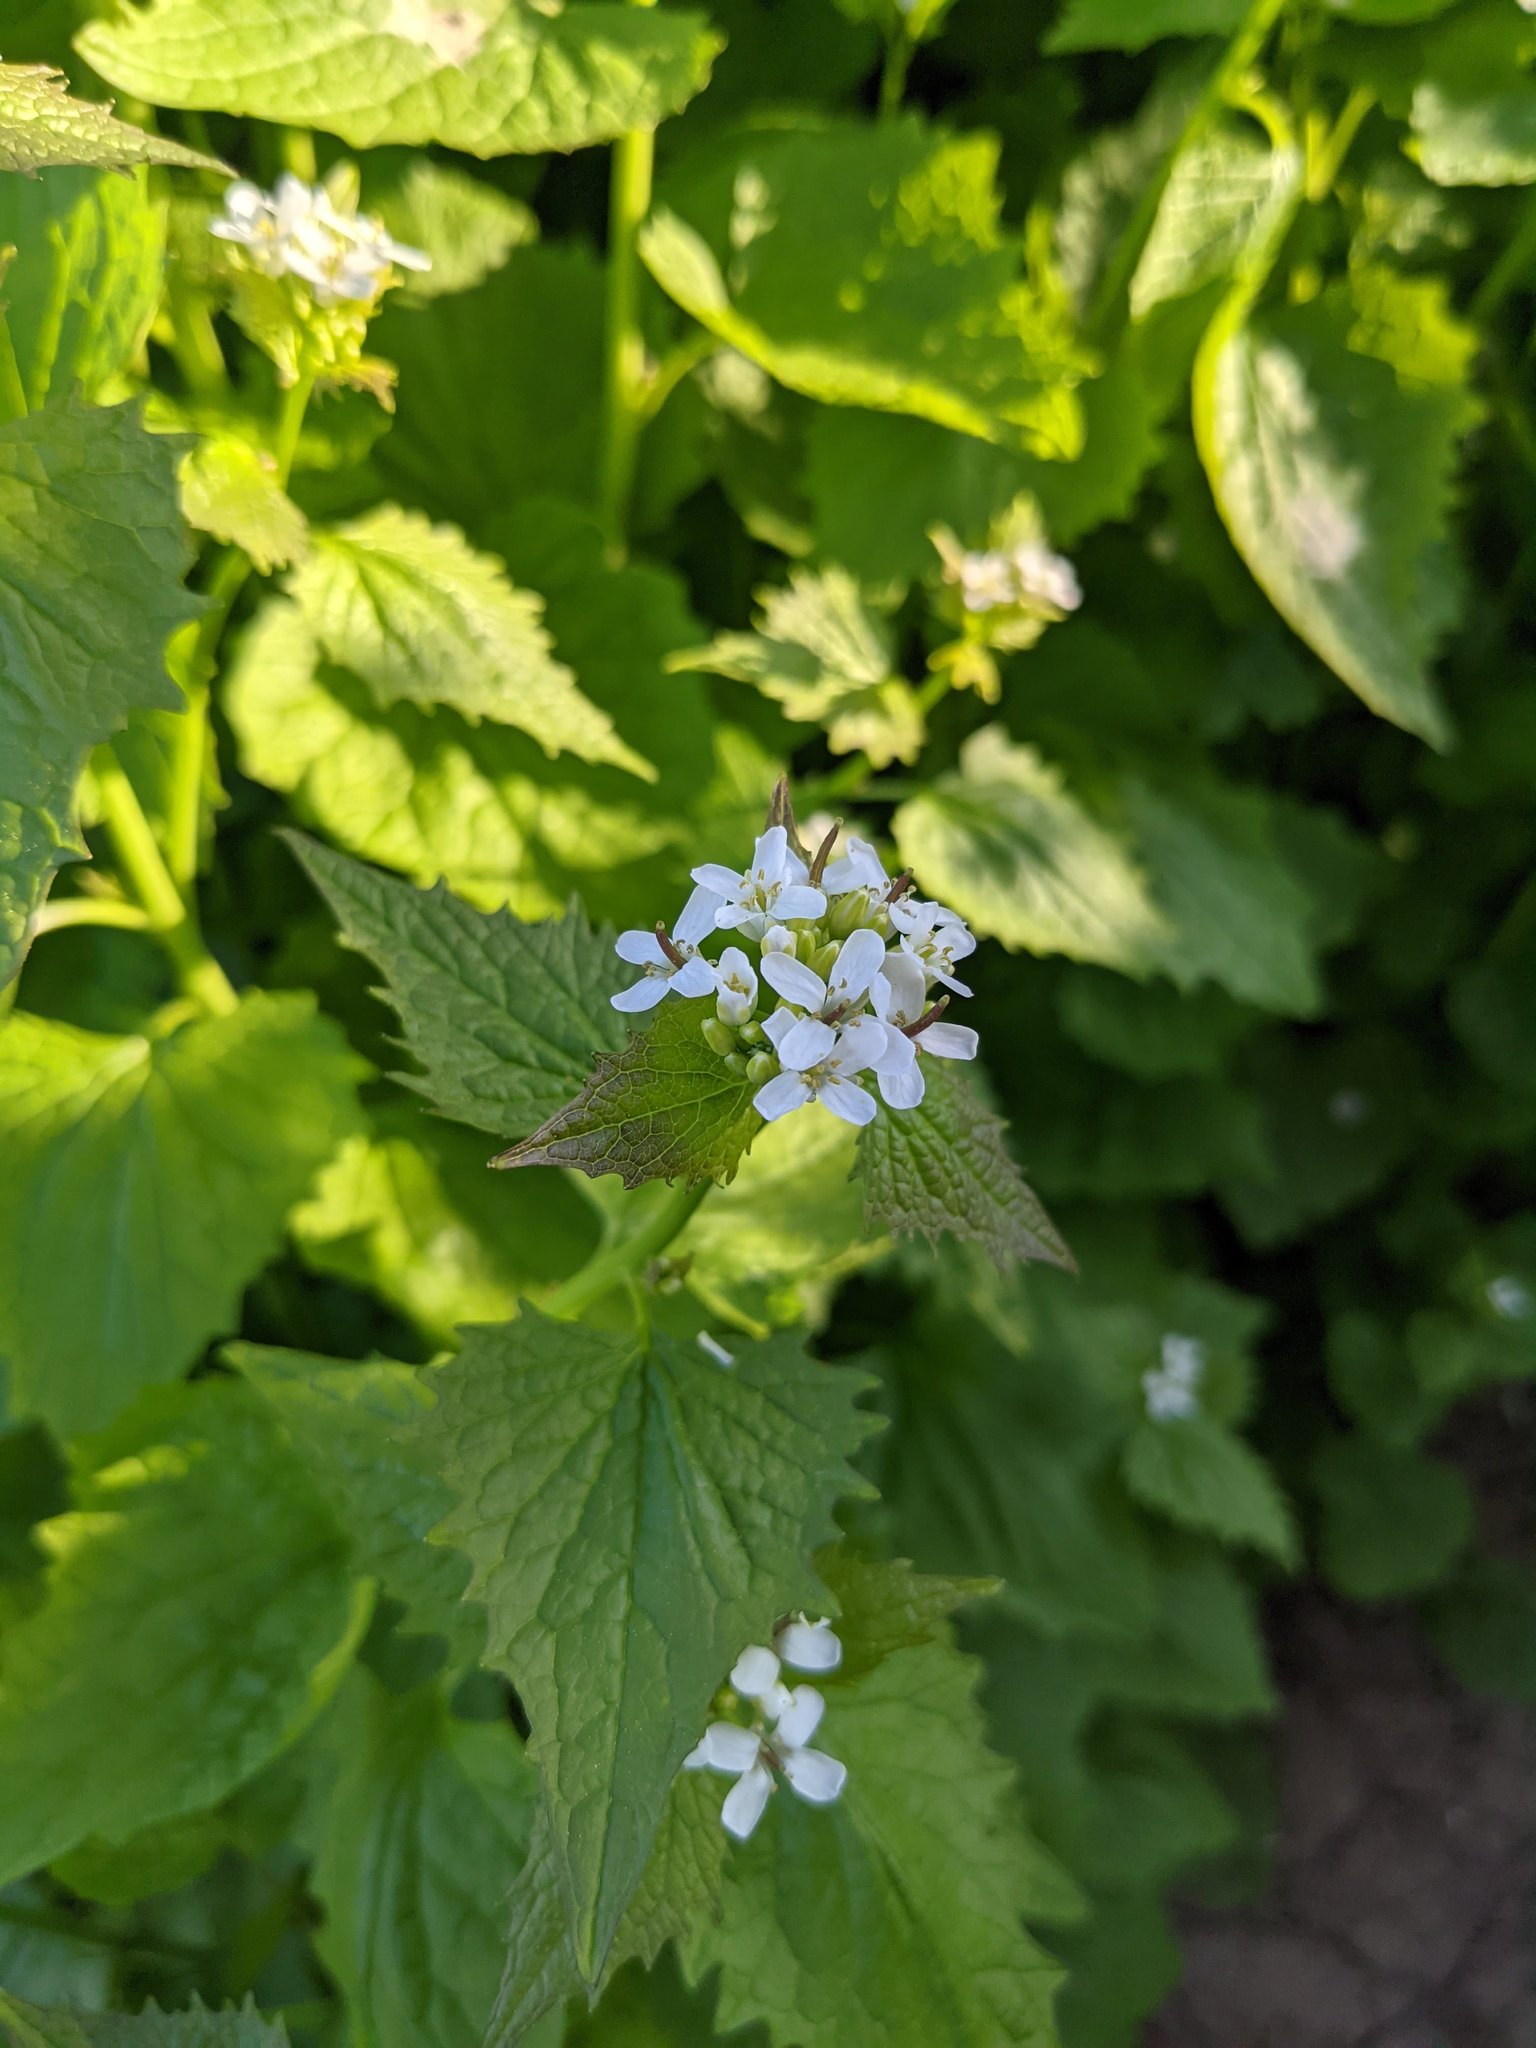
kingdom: Plantae
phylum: Tracheophyta
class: Magnoliopsida
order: Brassicales
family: Brassicaceae
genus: Alliaria
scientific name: Alliaria petiolata
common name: Garlic mustard
